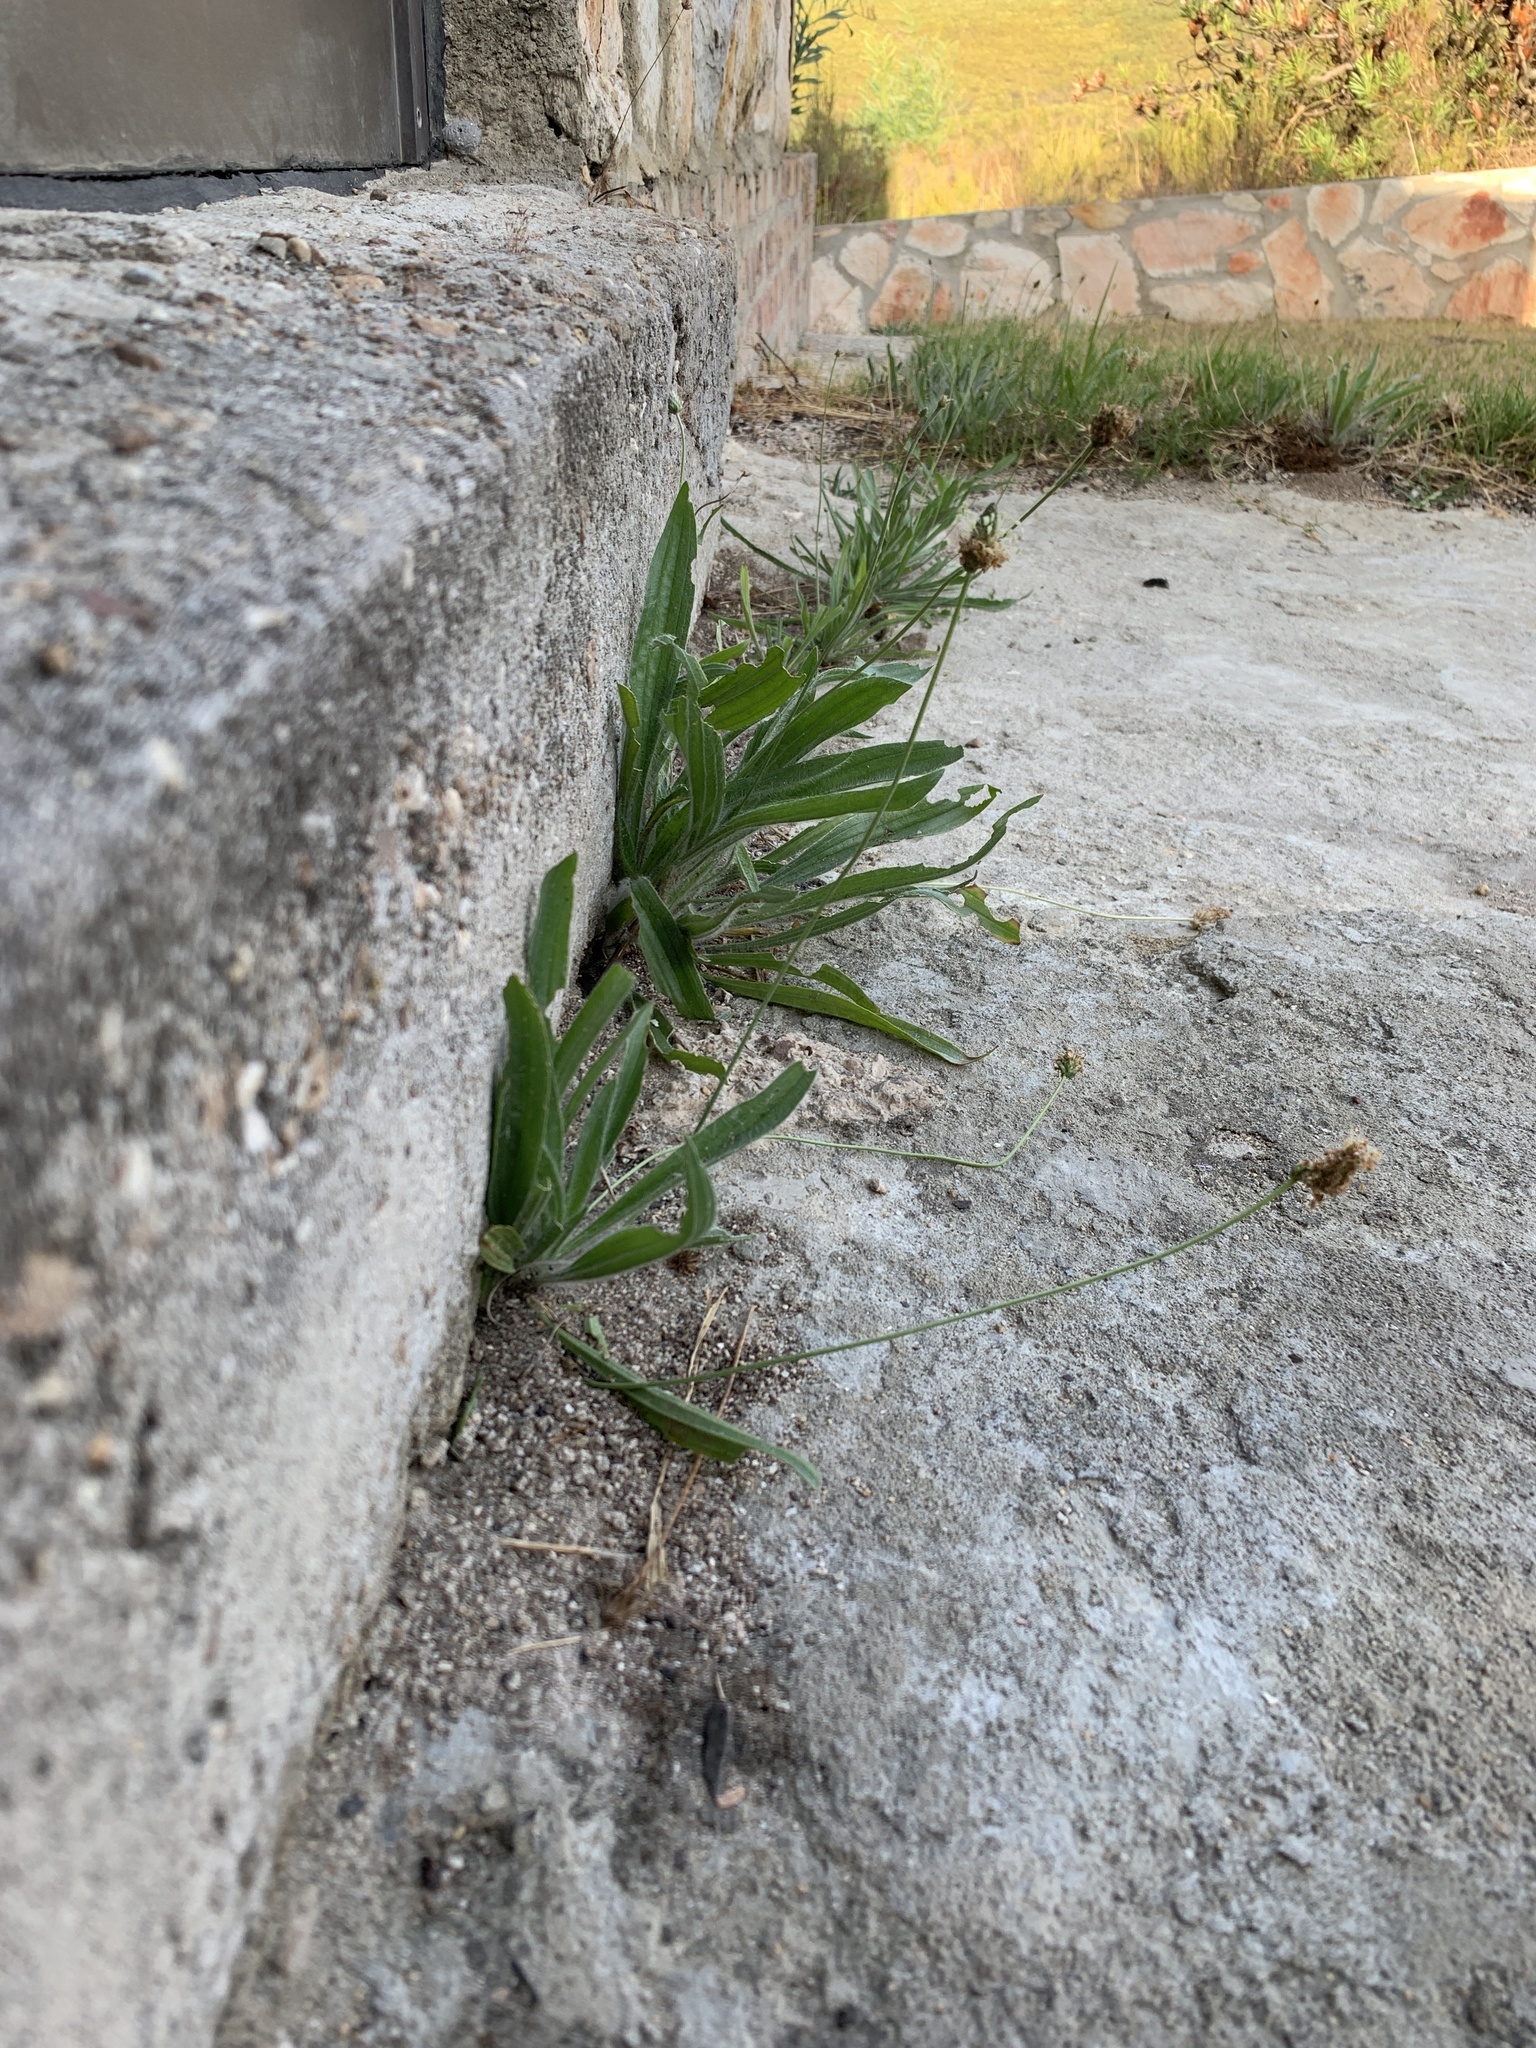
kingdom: Plantae
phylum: Tracheophyta
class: Magnoliopsida
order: Lamiales
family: Plantaginaceae
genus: Plantago
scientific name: Plantago lanceolata
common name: Ribwort plantain
